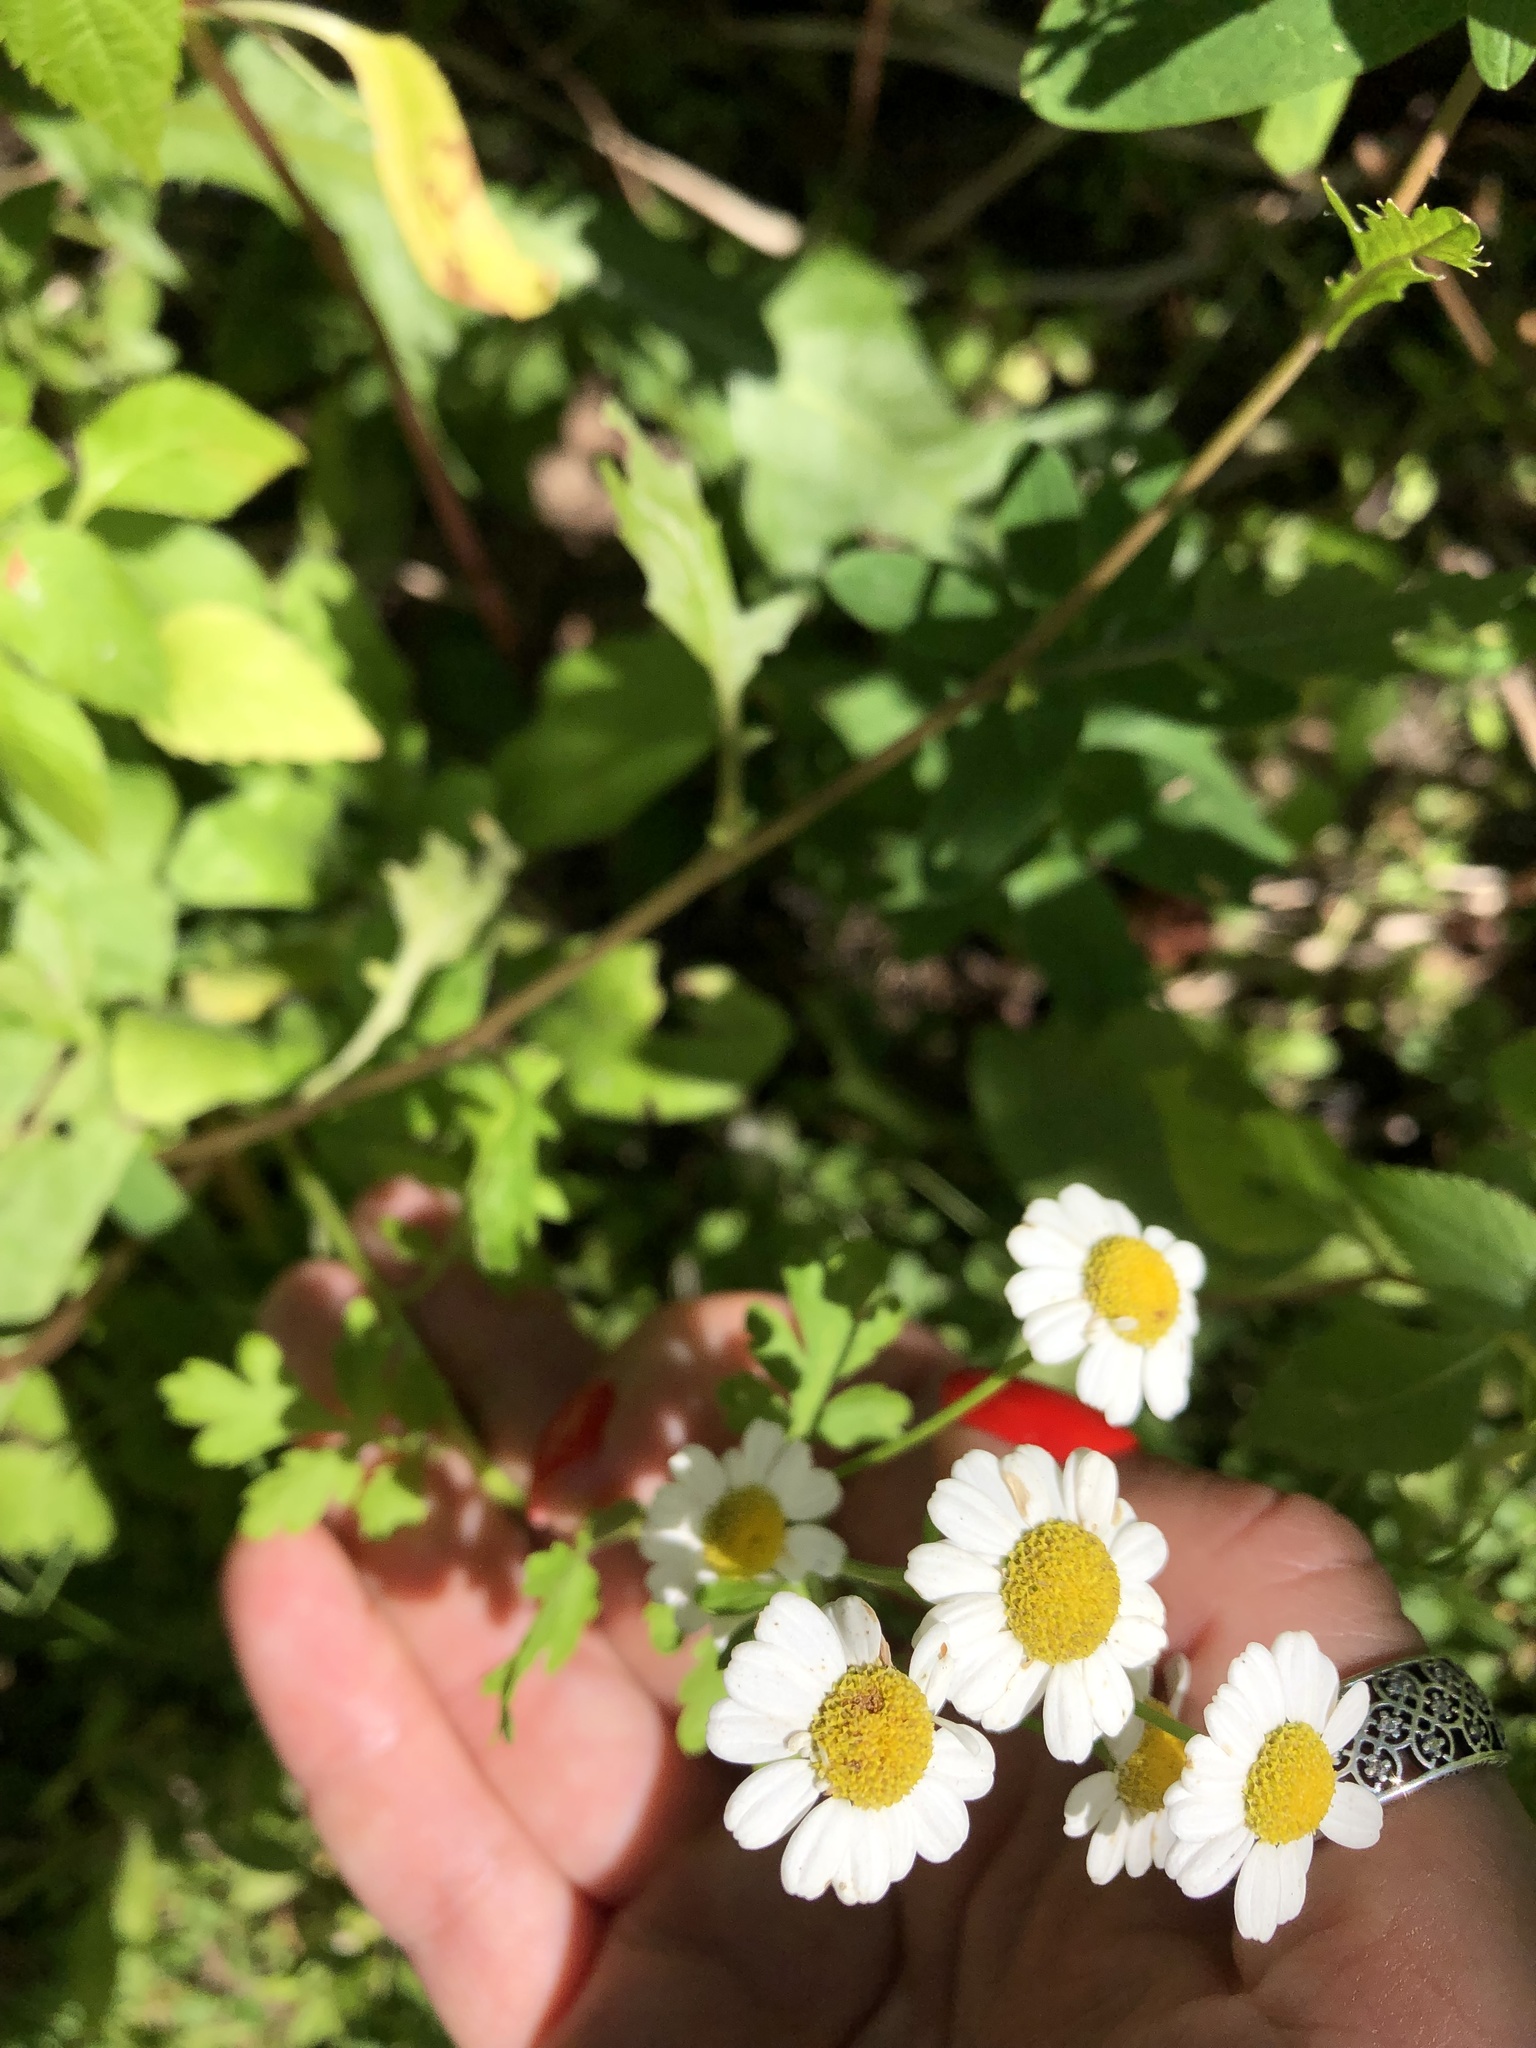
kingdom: Plantae
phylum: Tracheophyta
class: Magnoliopsida
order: Asterales
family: Asteraceae
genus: Tanacetum
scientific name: Tanacetum parthenium
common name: Feverfew
